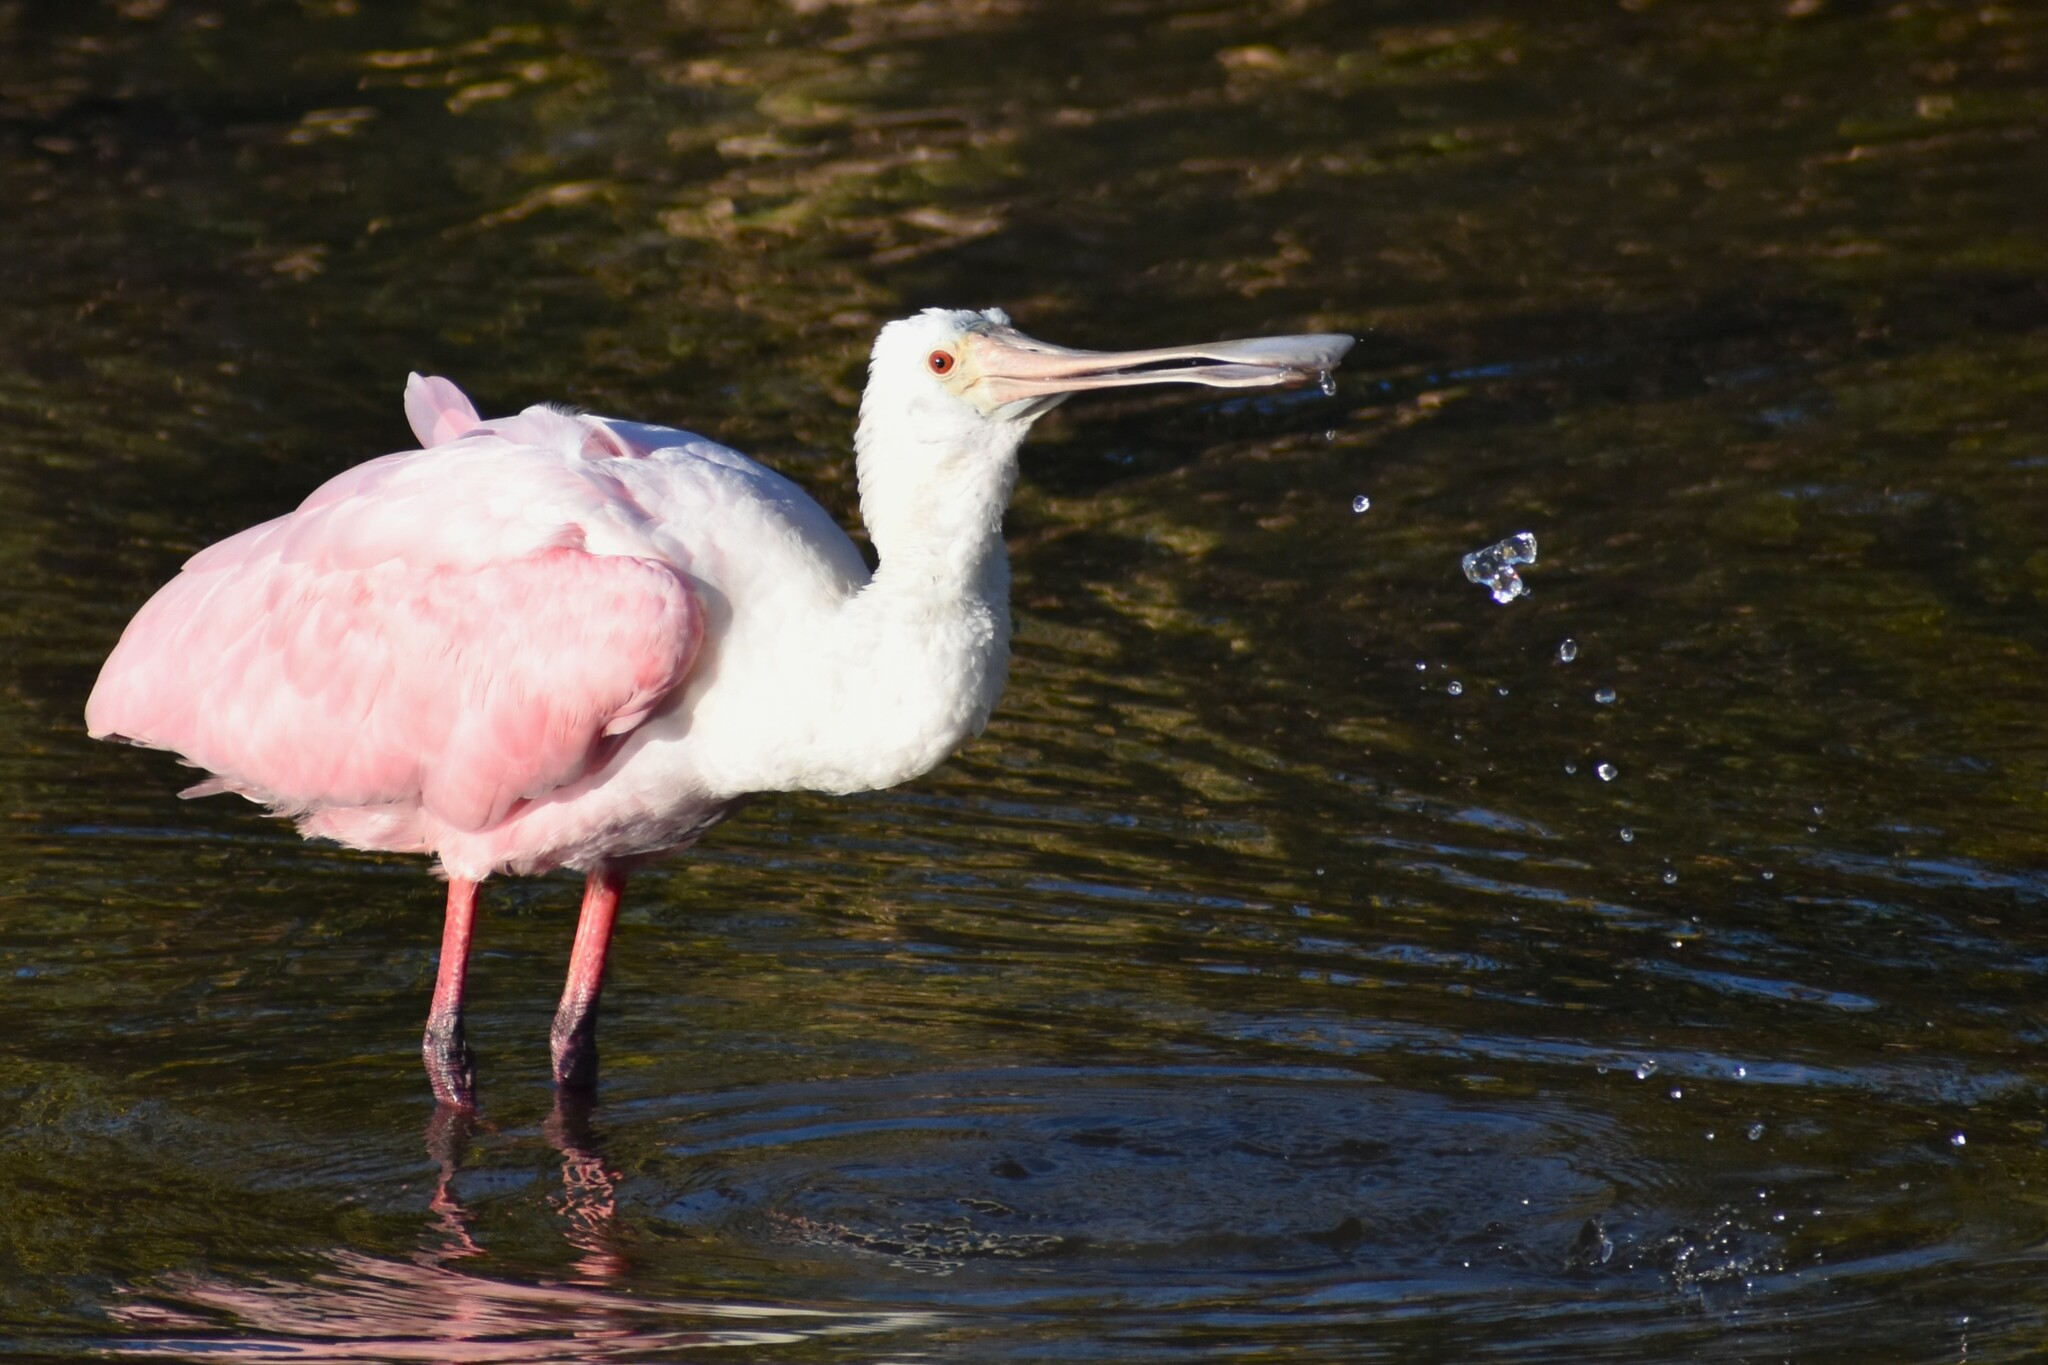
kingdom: Animalia
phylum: Chordata
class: Aves
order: Pelecaniformes
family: Threskiornithidae
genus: Platalea
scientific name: Platalea ajaja
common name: Roseate spoonbill
